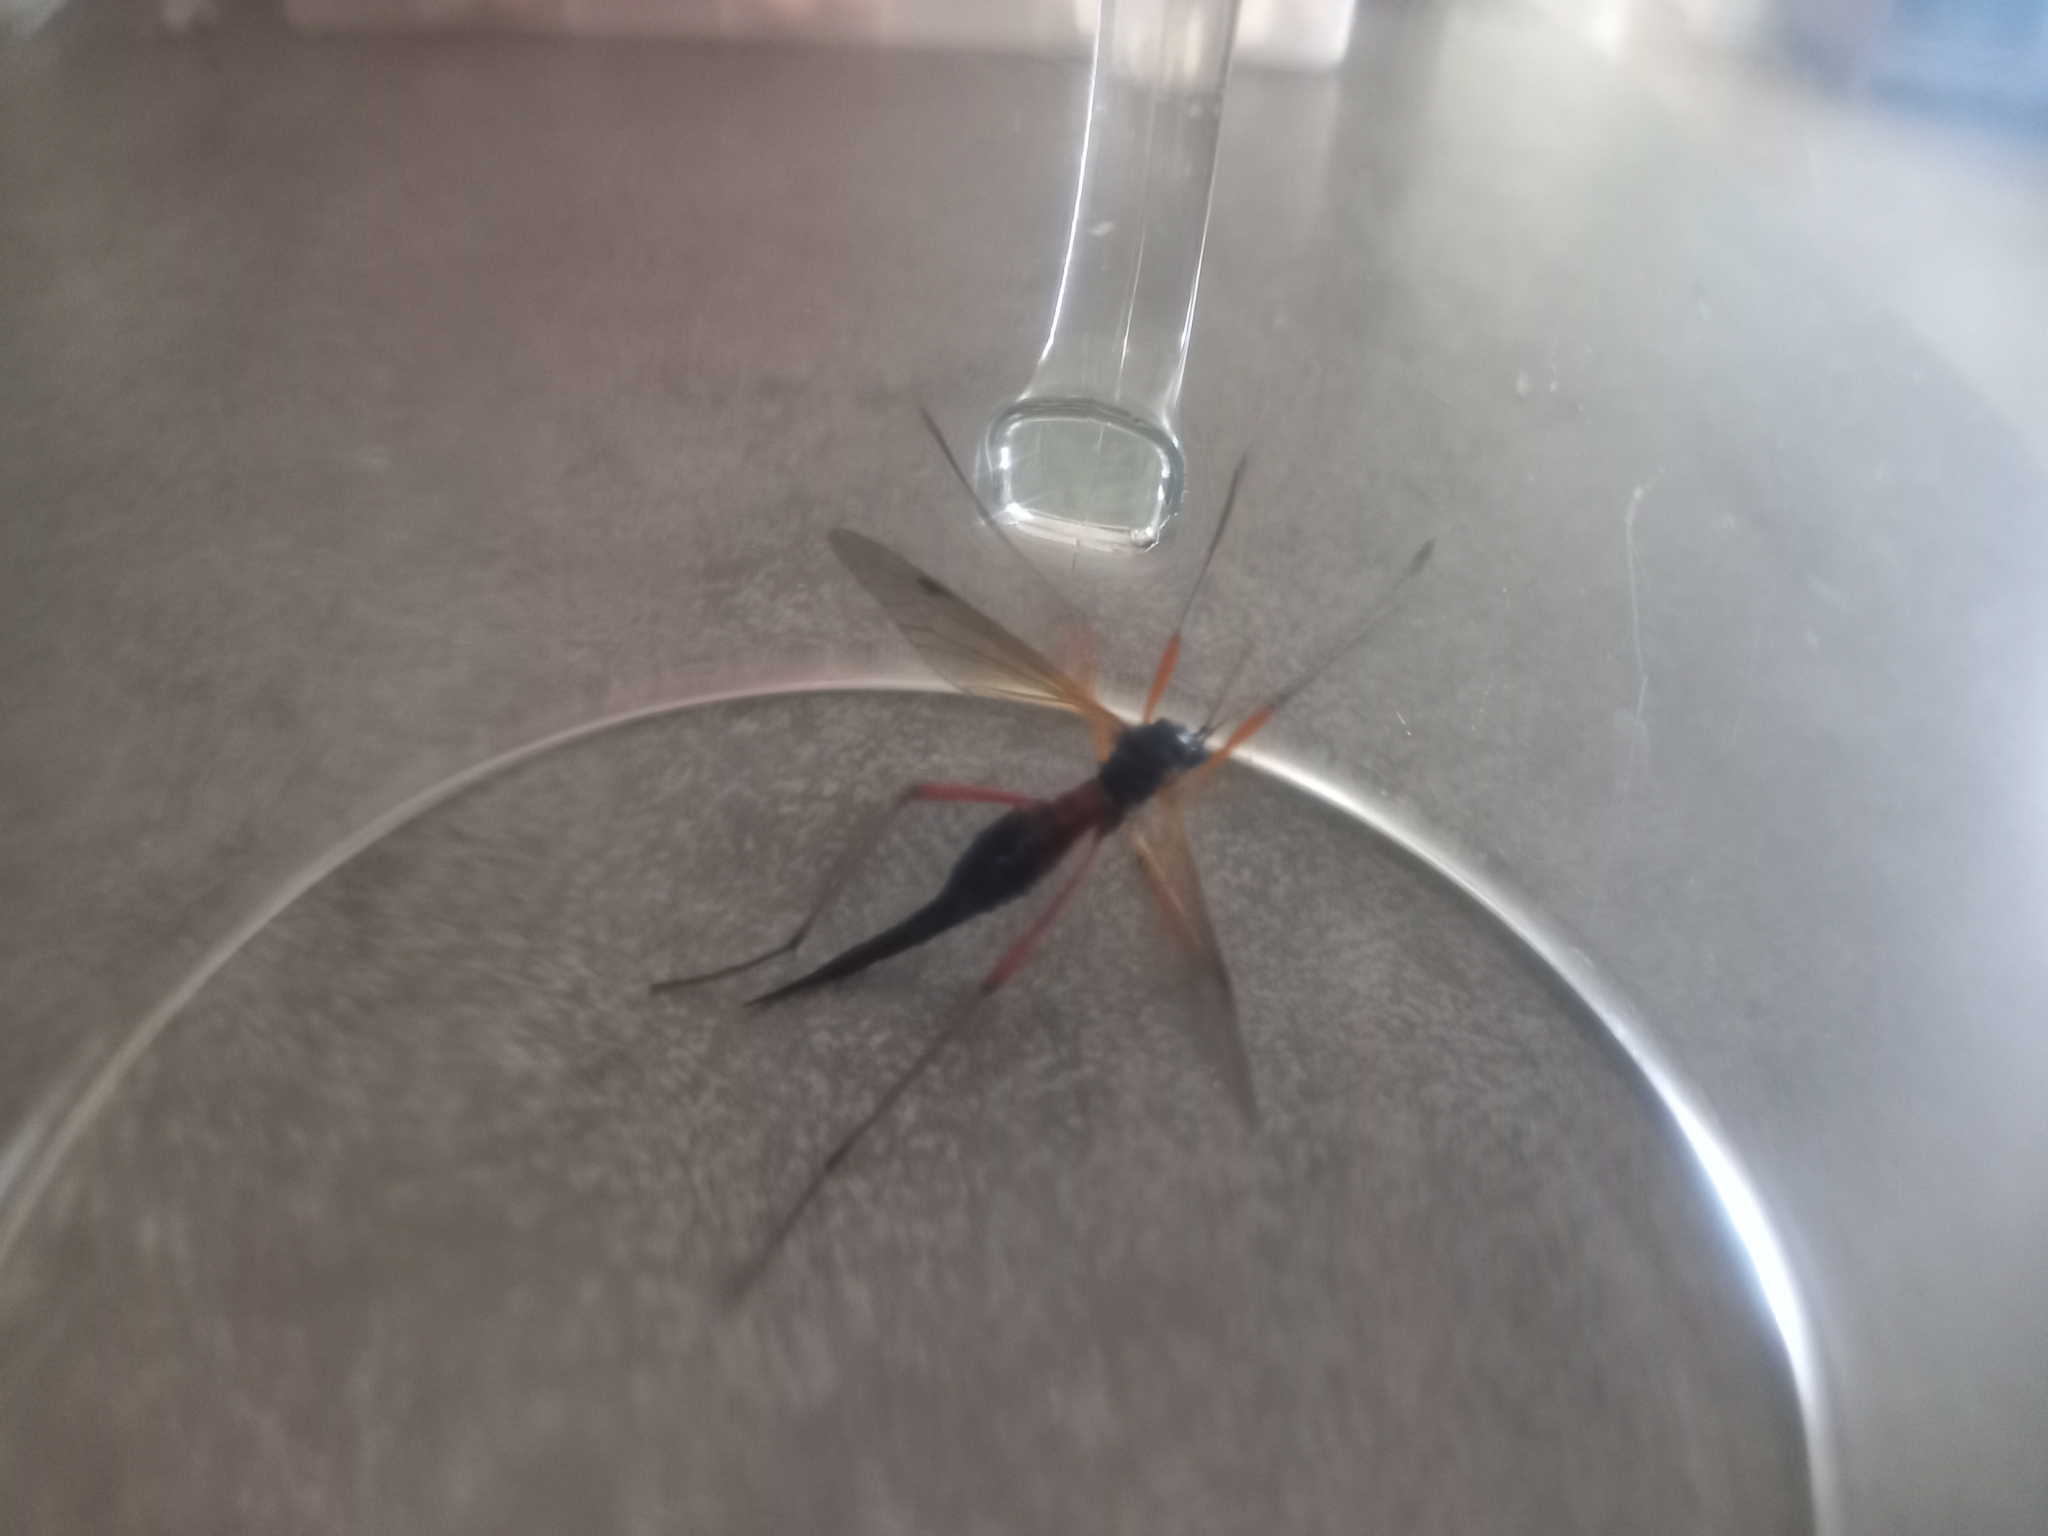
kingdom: Animalia
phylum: Arthropoda
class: Insecta
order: Diptera
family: Tipulidae
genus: Tanyptera
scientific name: Tanyptera atrata
